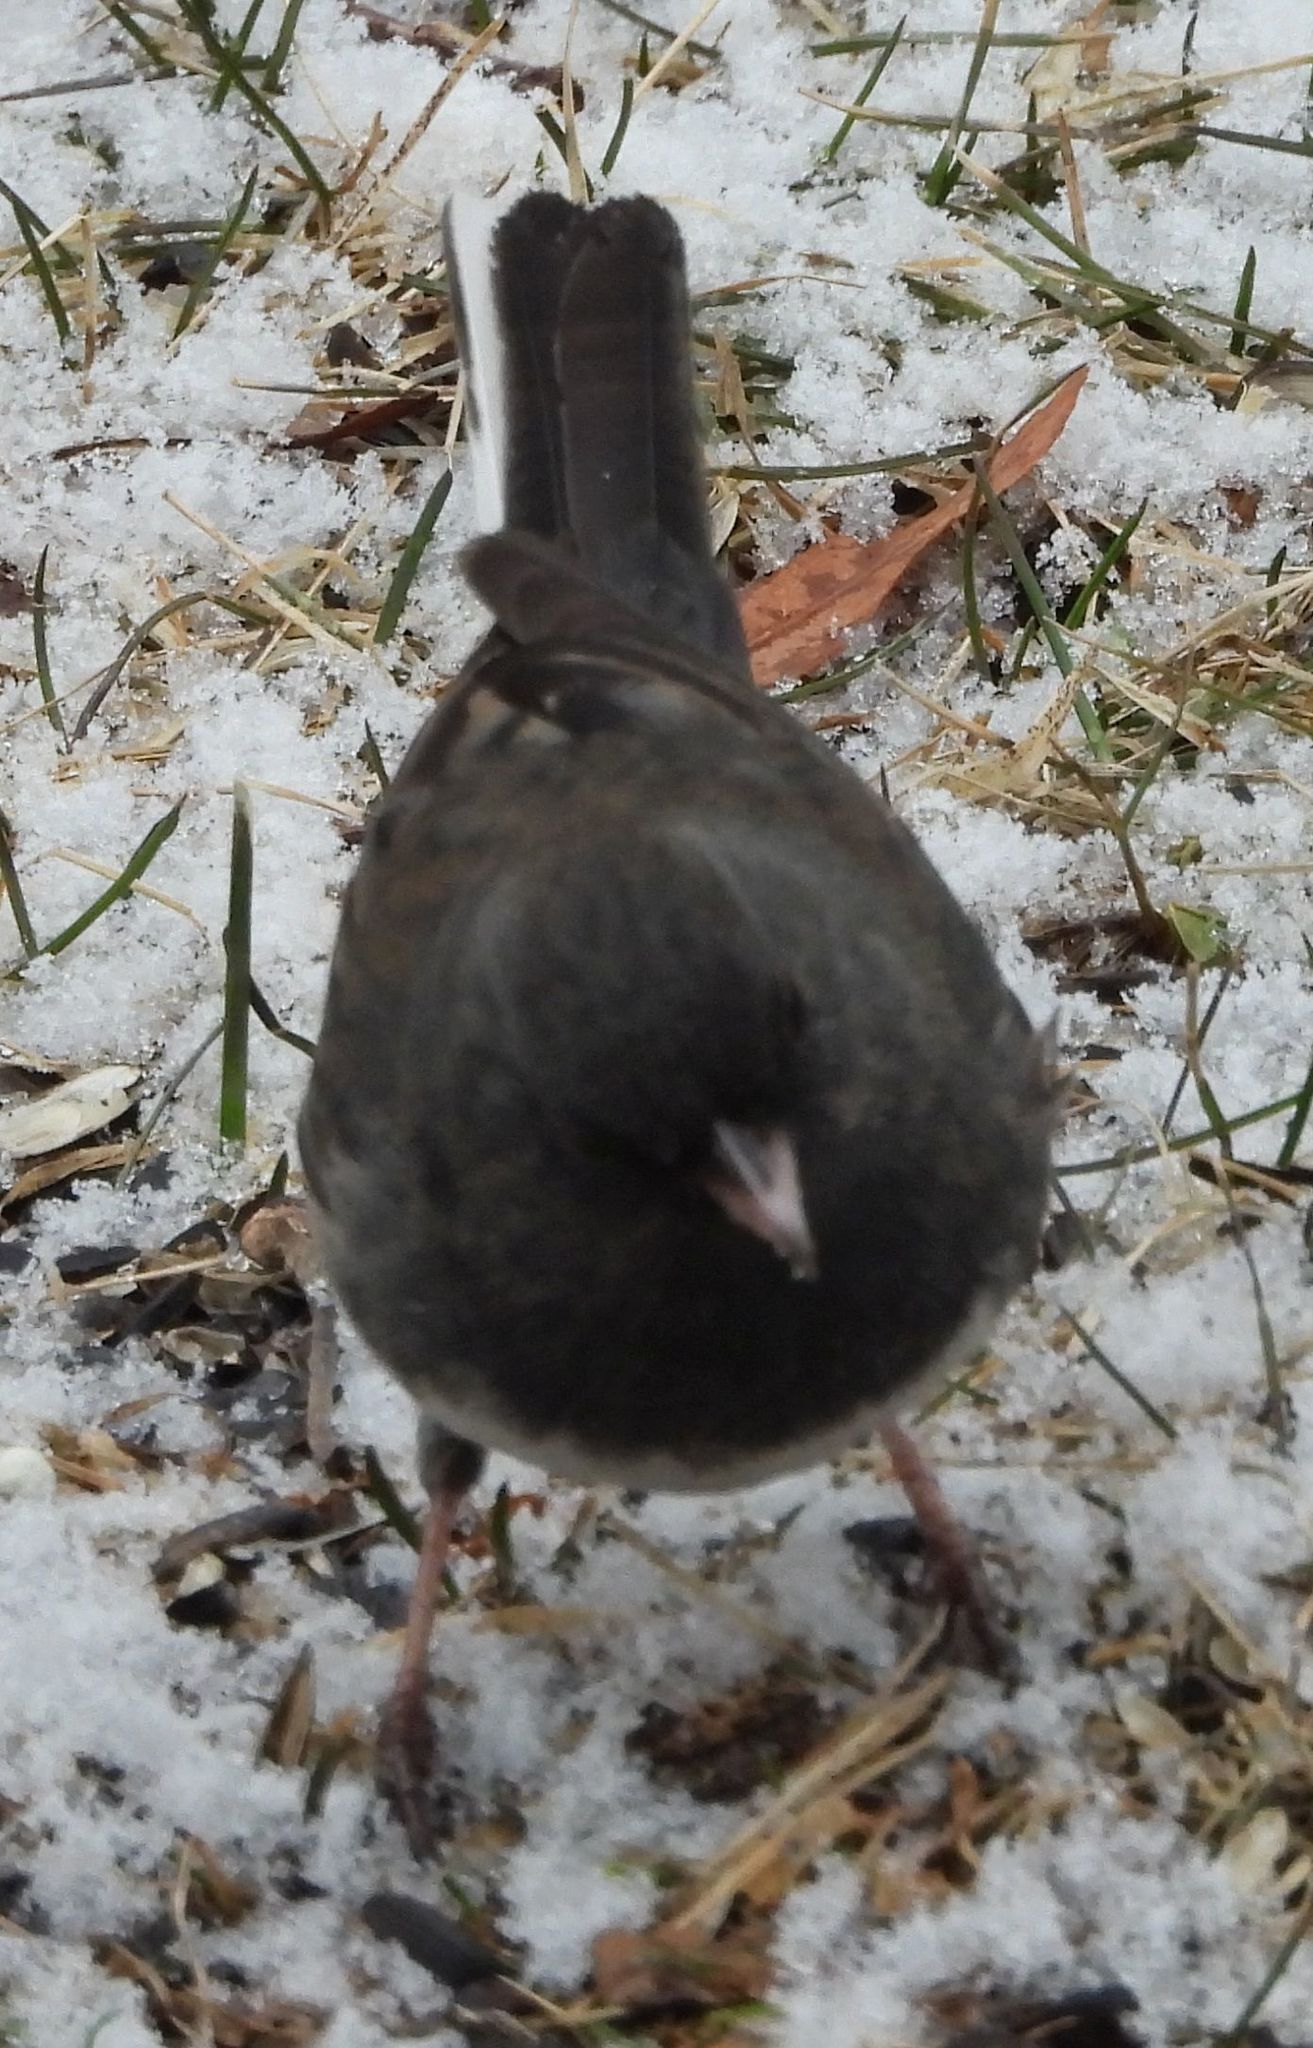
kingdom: Animalia
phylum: Chordata
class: Aves
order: Passeriformes
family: Passerellidae
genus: Junco
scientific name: Junco hyemalis
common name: Dark-eyed junco
